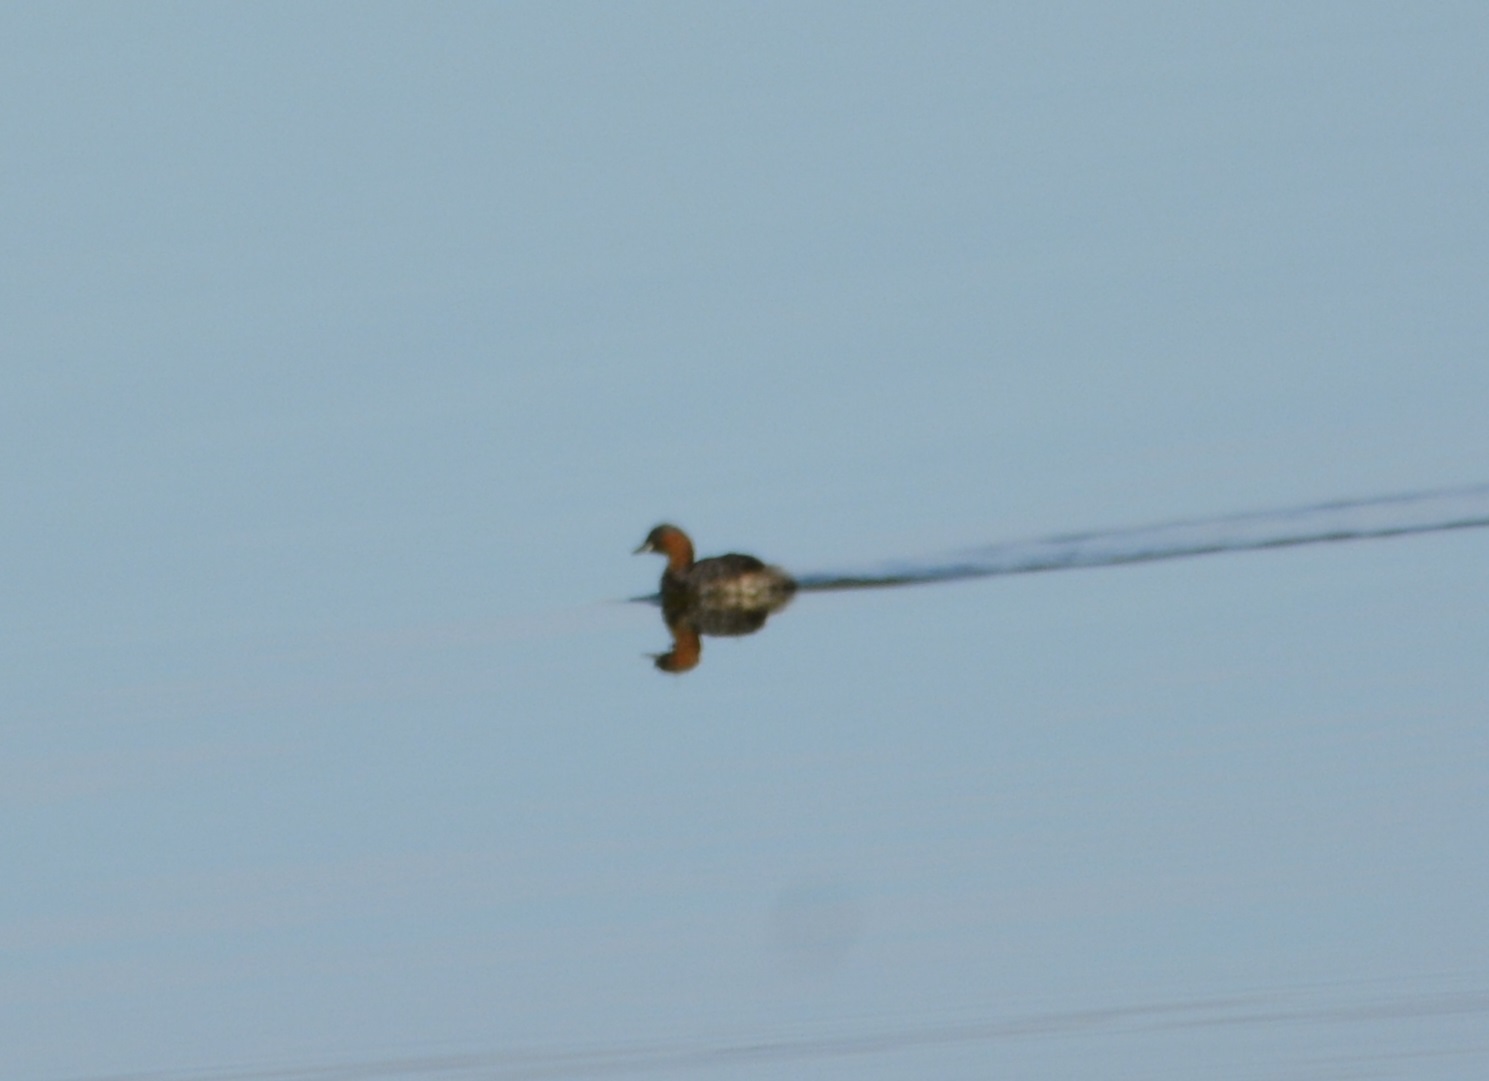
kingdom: Animalia
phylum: Chordata
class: Aves
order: Podicipediformes
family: Podicipedidae
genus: Tachybaptus
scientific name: Tachybaptus ruficollis
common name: Little grebe
